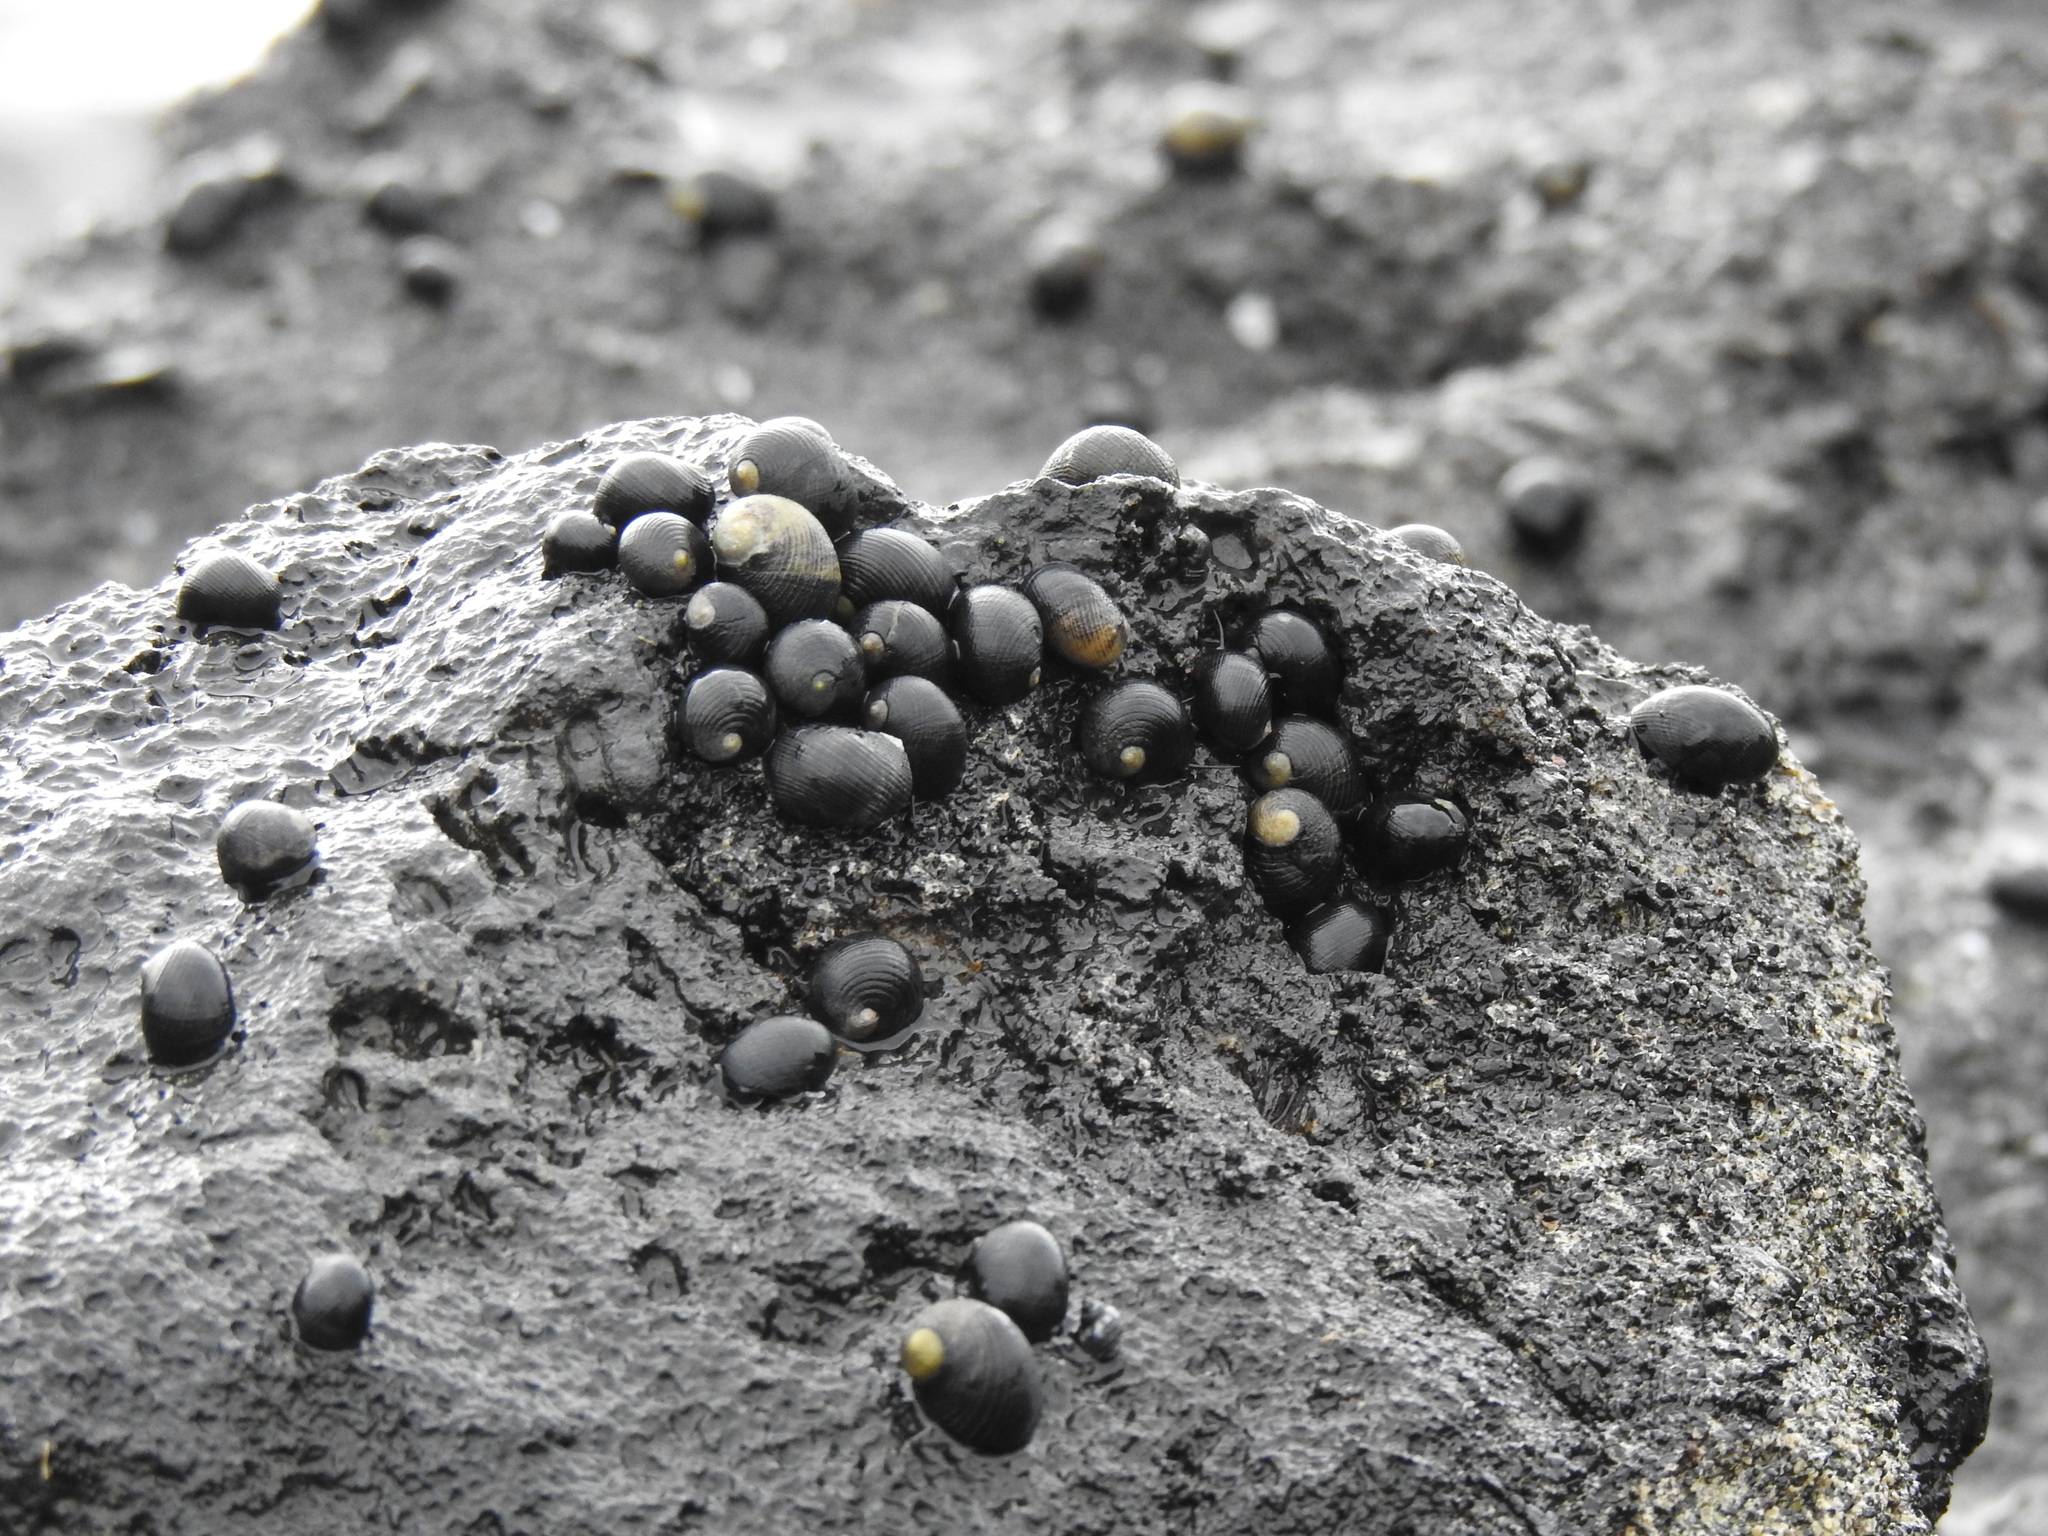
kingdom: Animalia
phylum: Mollusca
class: Gastropoda
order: Cycloneritida
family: Neritidae
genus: Nerita
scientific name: Nerita picea
